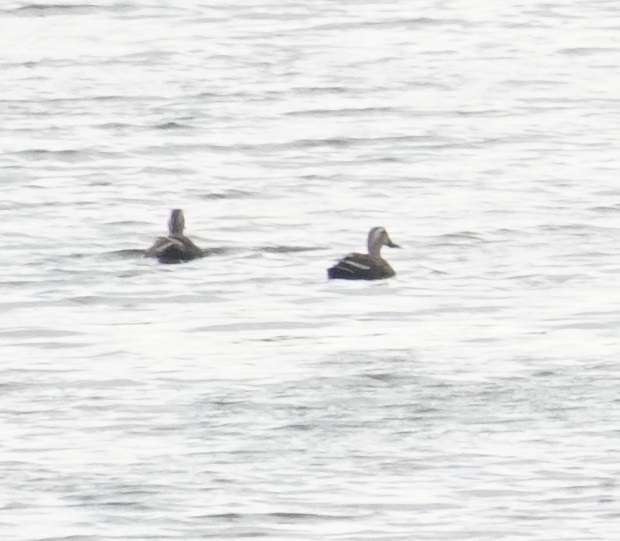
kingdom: Animalia
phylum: Chordata
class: Aves
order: Anseriformes
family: Anatidae
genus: Anas
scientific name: Anas zonorhyncha
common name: Eastern spot-billed duck
